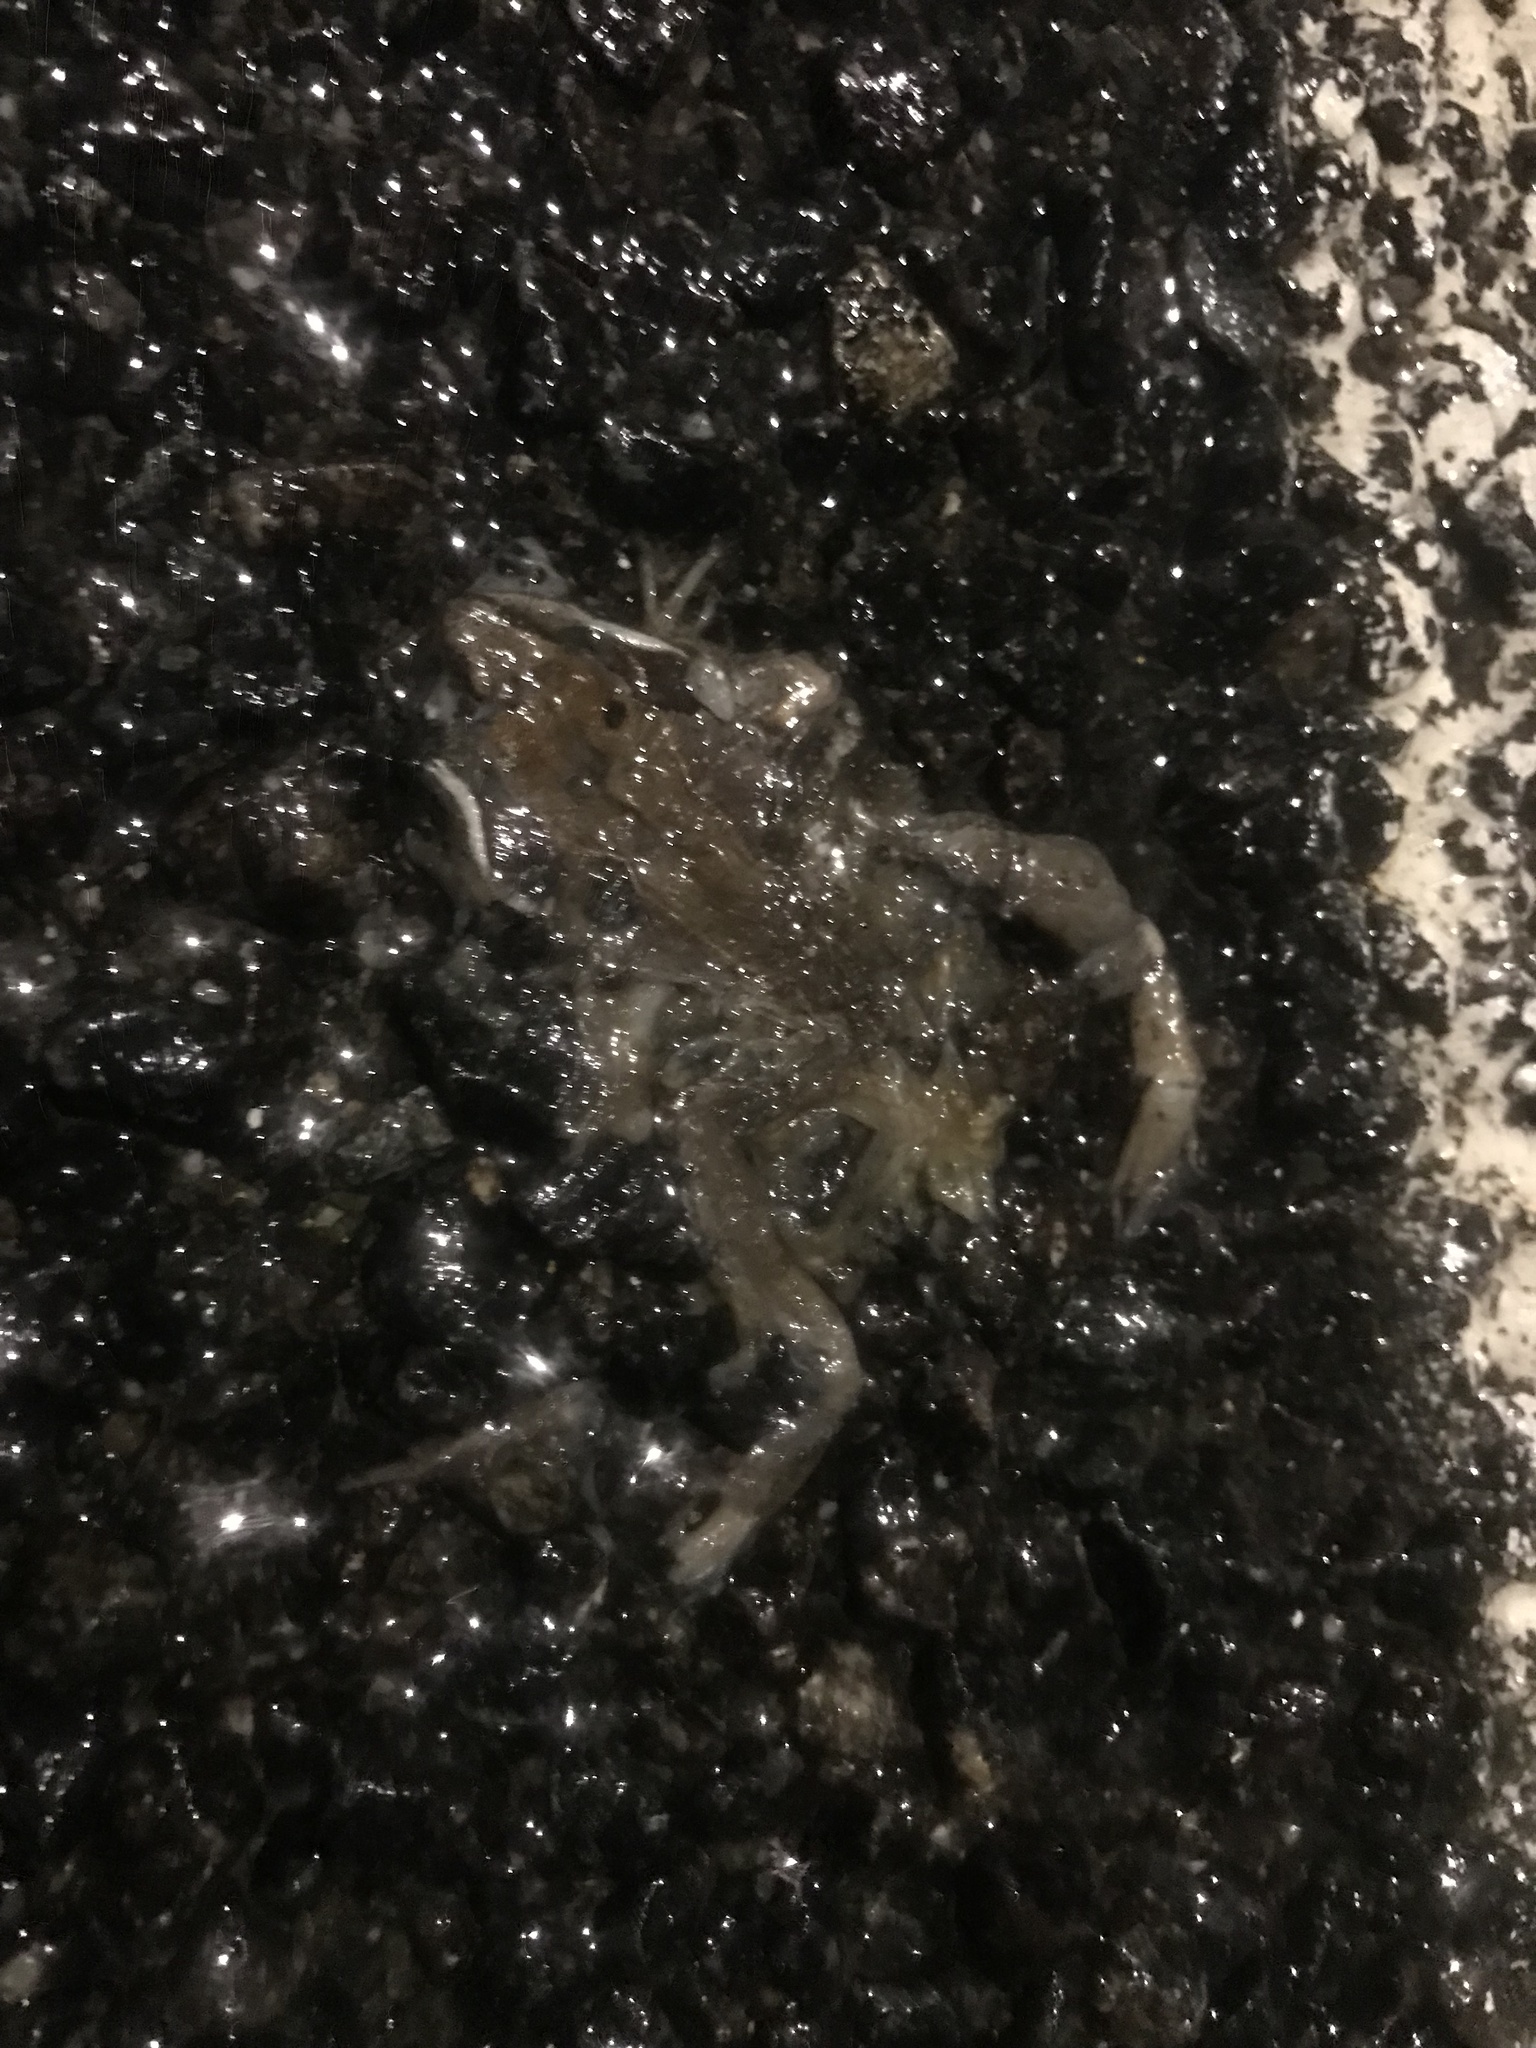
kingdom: Animalia
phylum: Chordata
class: Amphibia
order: Anura
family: Ranidae
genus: Lithobates
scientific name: Lithobates sylvaticus
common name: Wood frog
